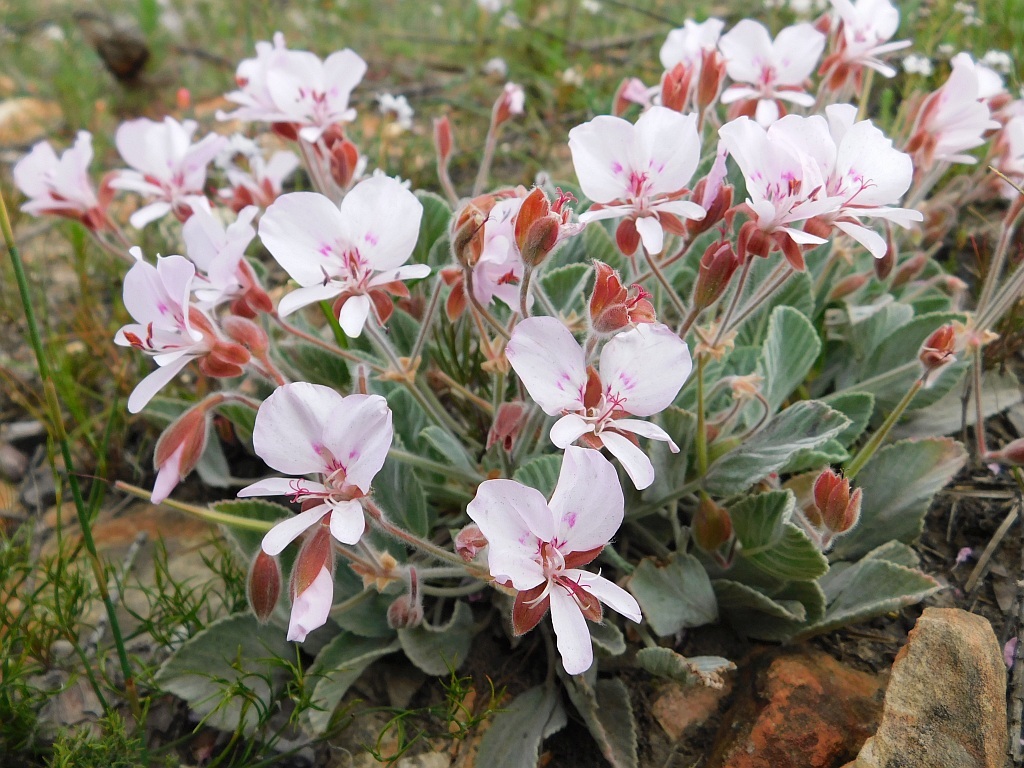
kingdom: Plantae
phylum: Tracheophyta
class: Magnoliopsida
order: Geraniales
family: Geraniaceae
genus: Pelargonium
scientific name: Pelargonium ovale
